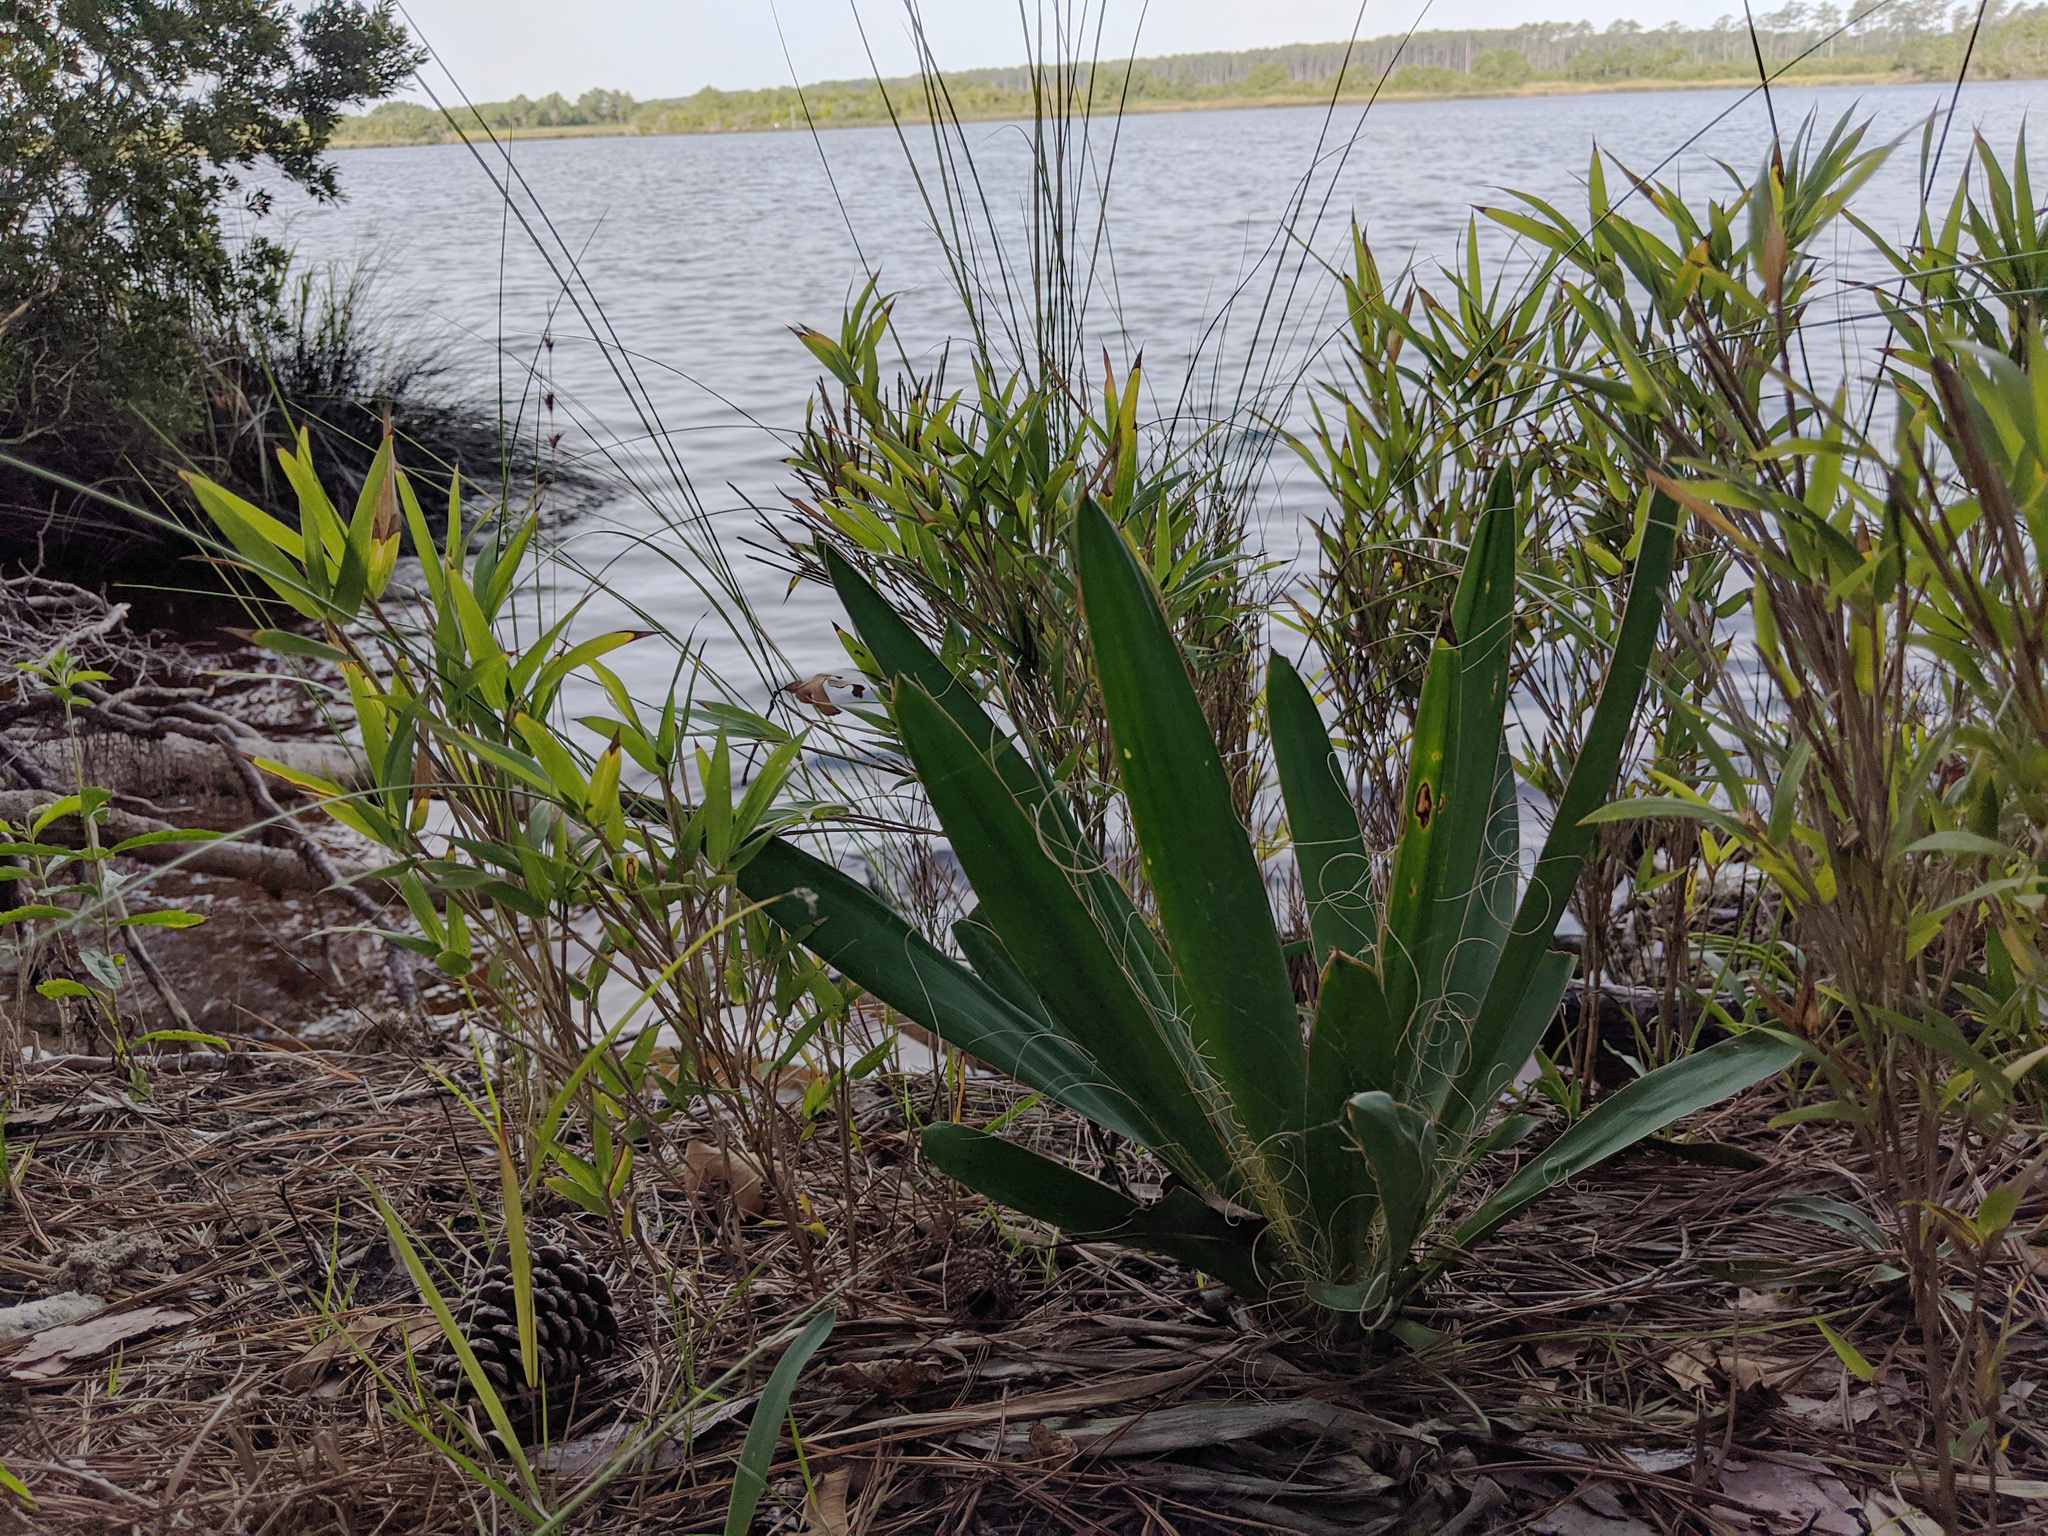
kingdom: Plantae
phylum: Tracheophyta
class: Liliopsida
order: Asparagales
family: Asparagaceae
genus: Yucca
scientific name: Yucca filamentosa
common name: Adam's-needle
